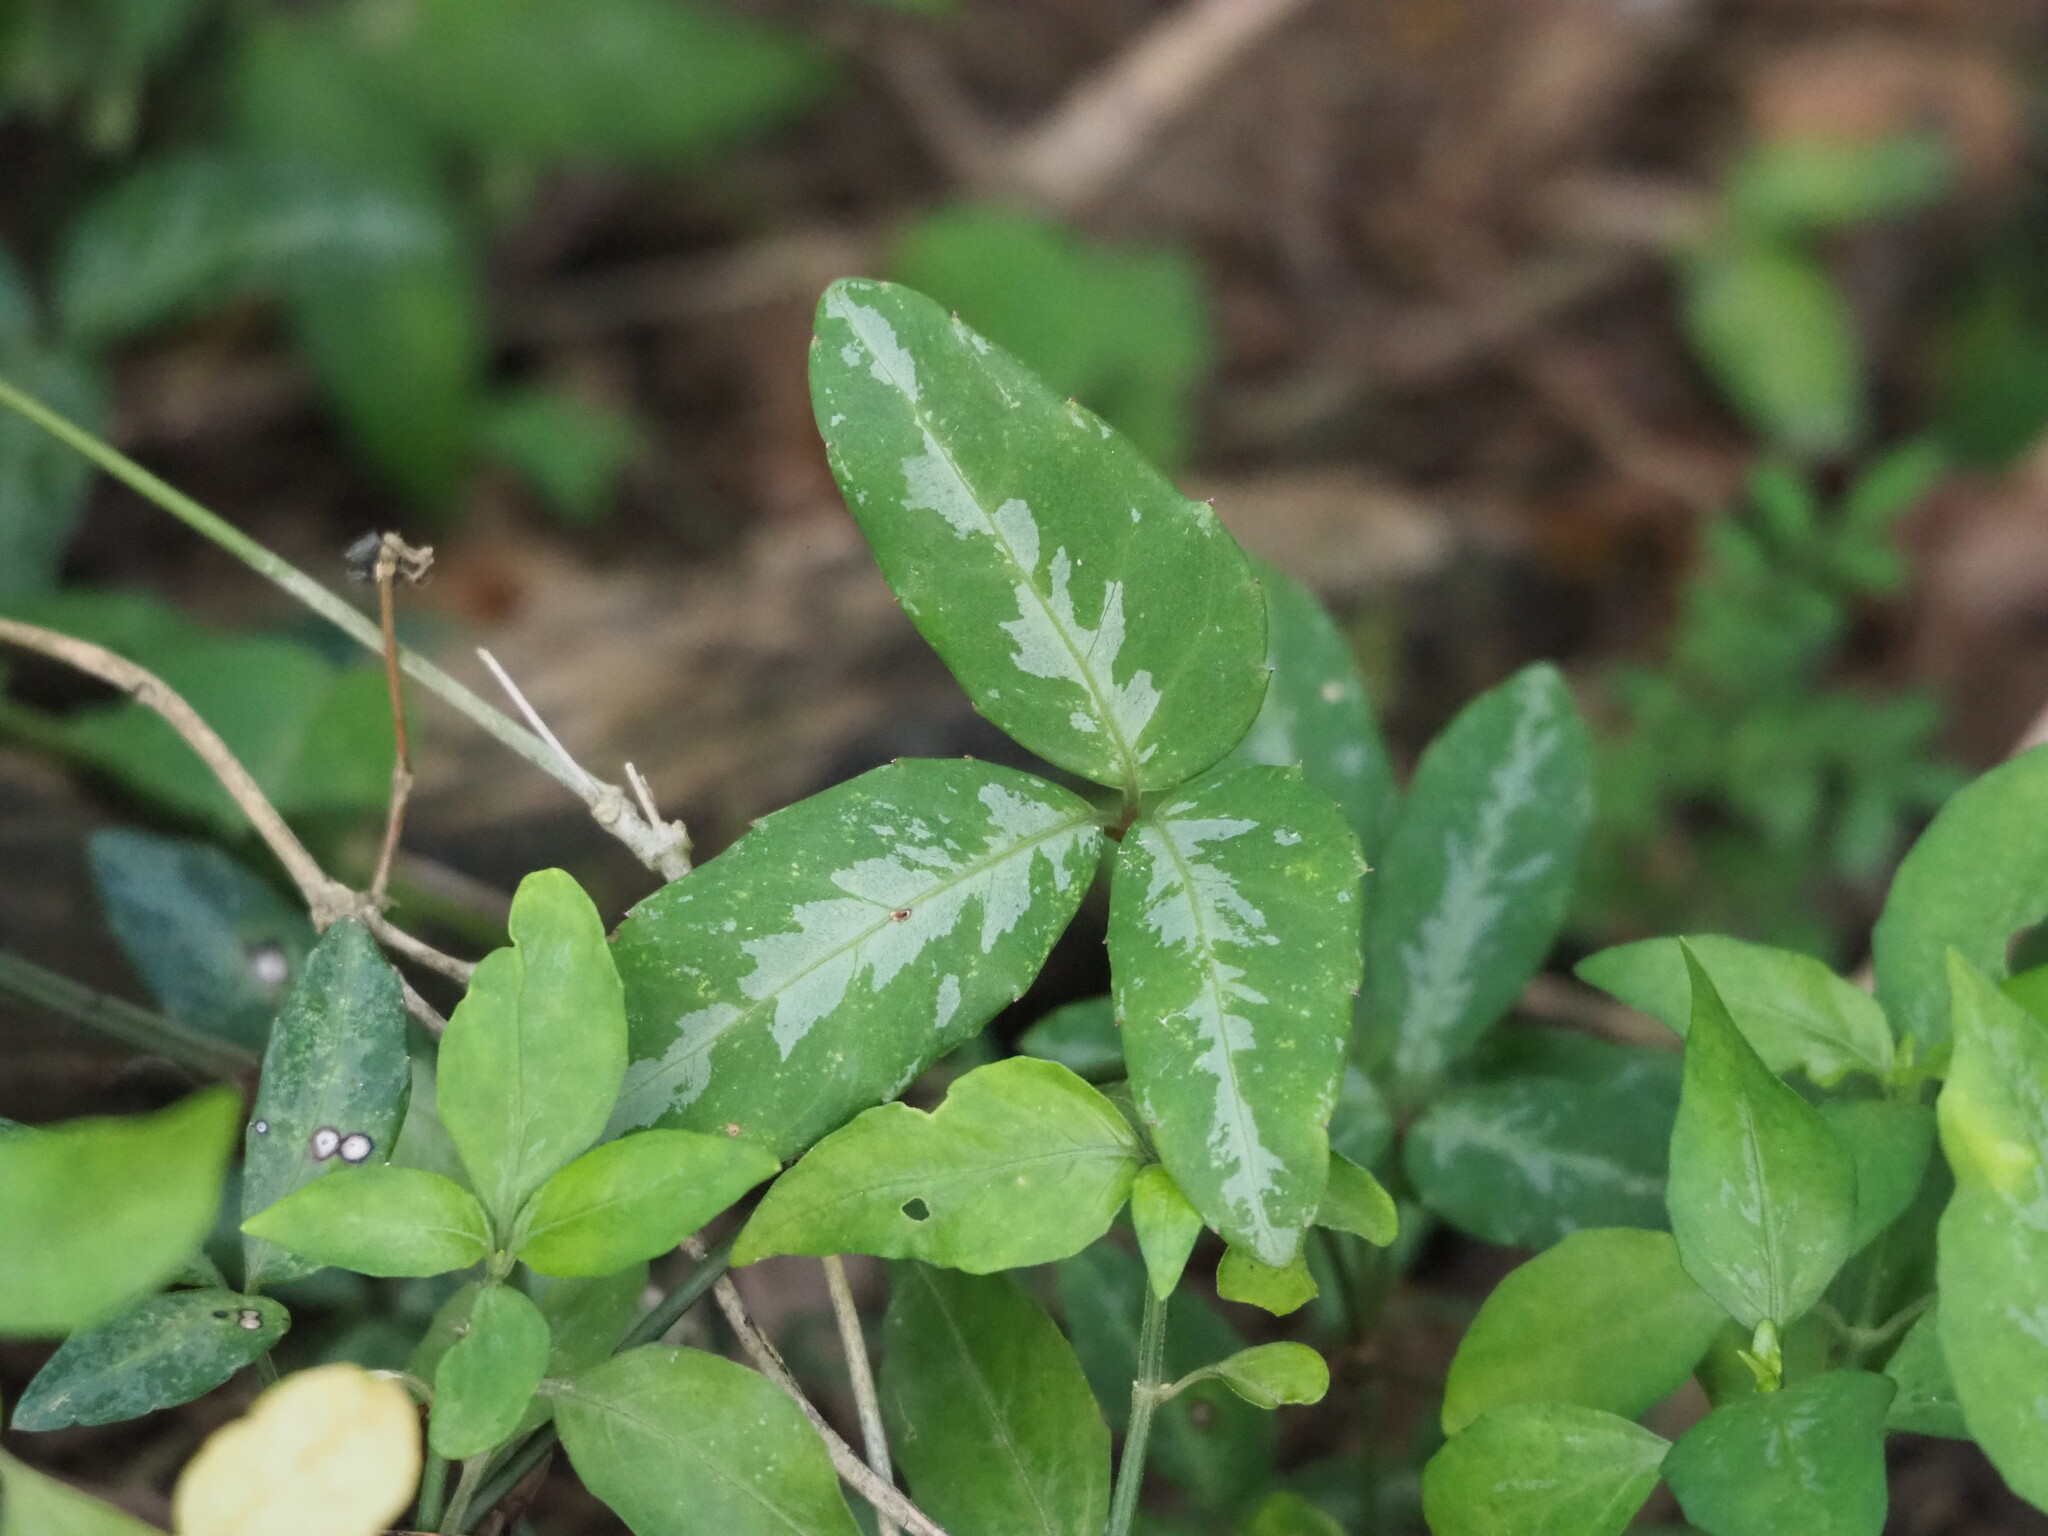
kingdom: Plantae
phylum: Tracheophyta
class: Magnoliopsida
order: Vitales
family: Vitaceae
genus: Tetrastigma
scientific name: Tetrastigma formosanum
